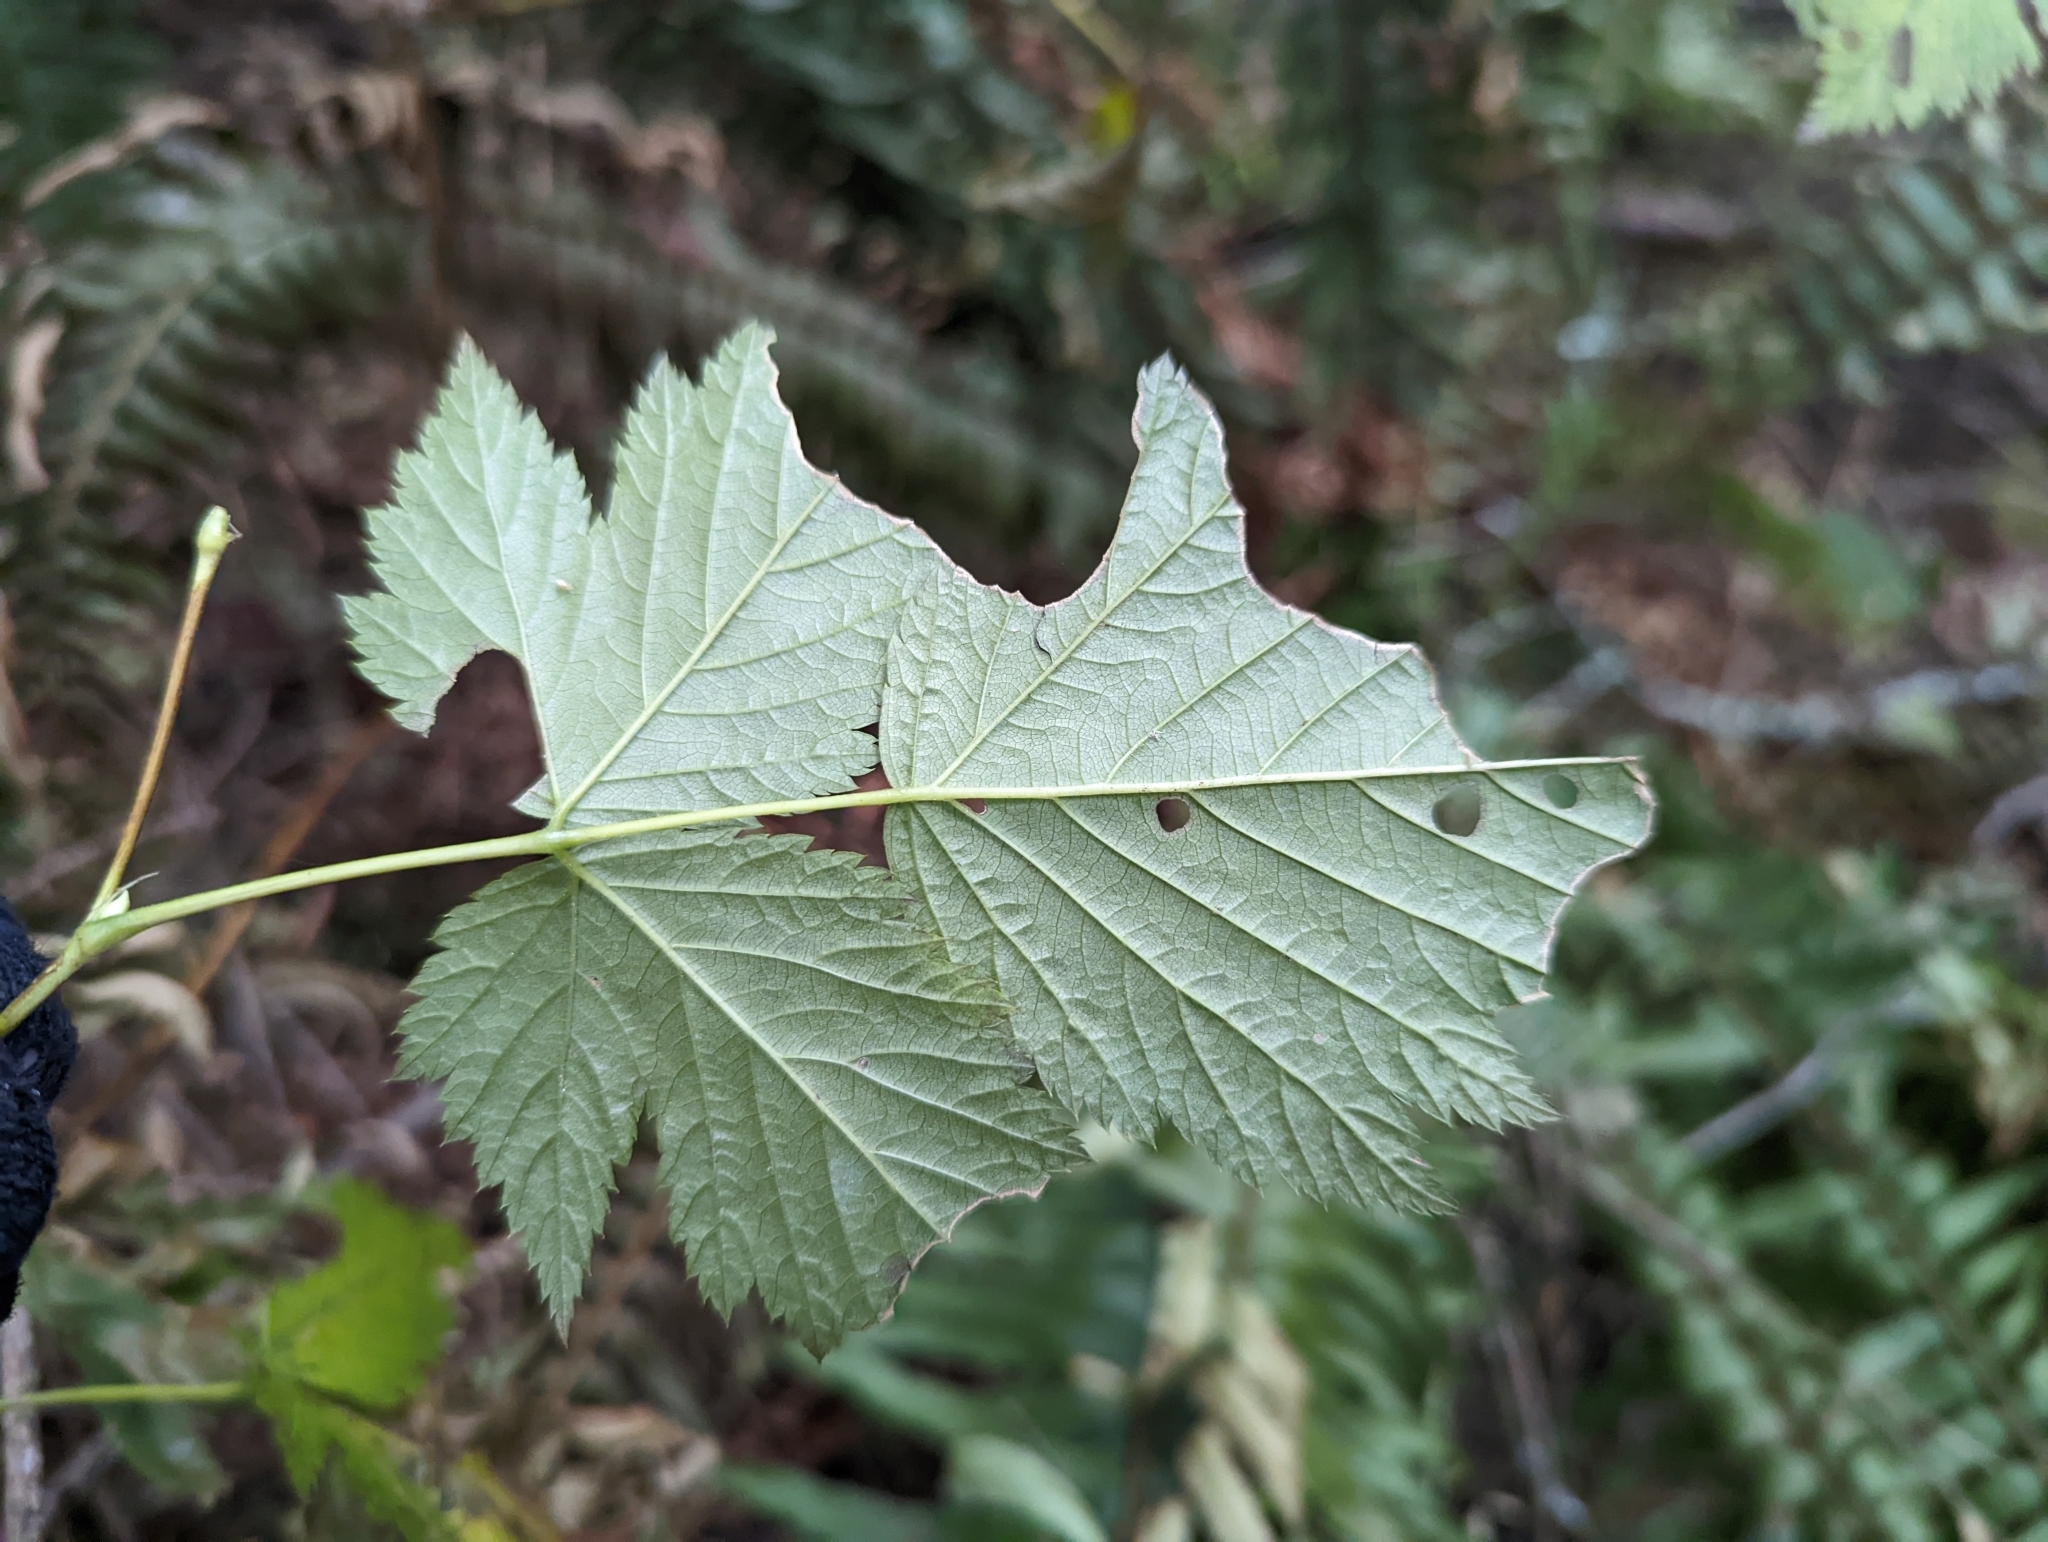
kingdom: Plantae
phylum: Tracheophyta
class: Magnoliopsida
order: Rosales
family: Rosaceae
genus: Rubus
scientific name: Rubus spectabilis
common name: Salmonberry
